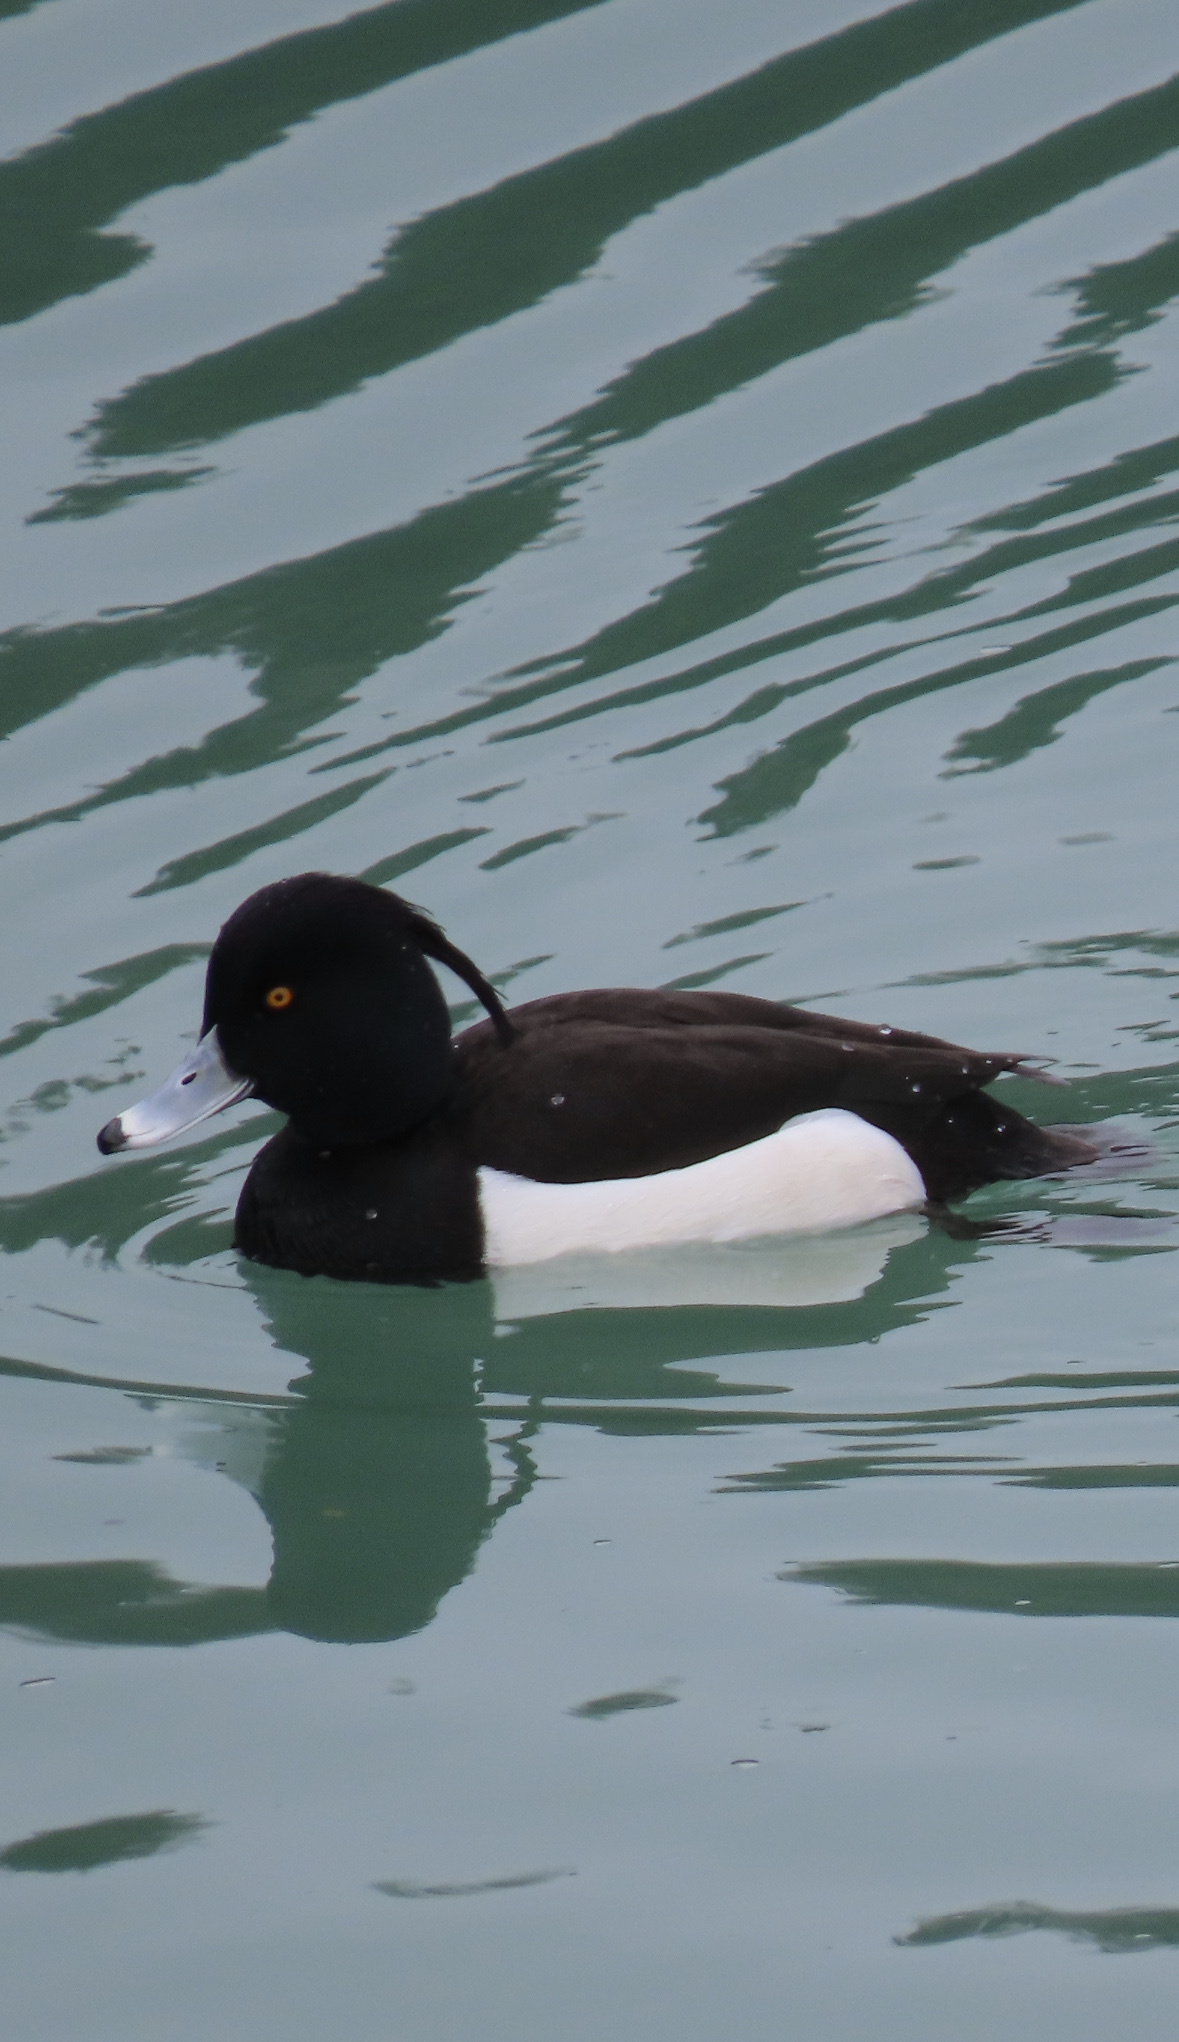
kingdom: Animalia
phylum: Chordata
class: Aves
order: Anseriformes
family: Anatidae
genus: Aythya
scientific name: Aythya fuligula
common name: Tufted duck
